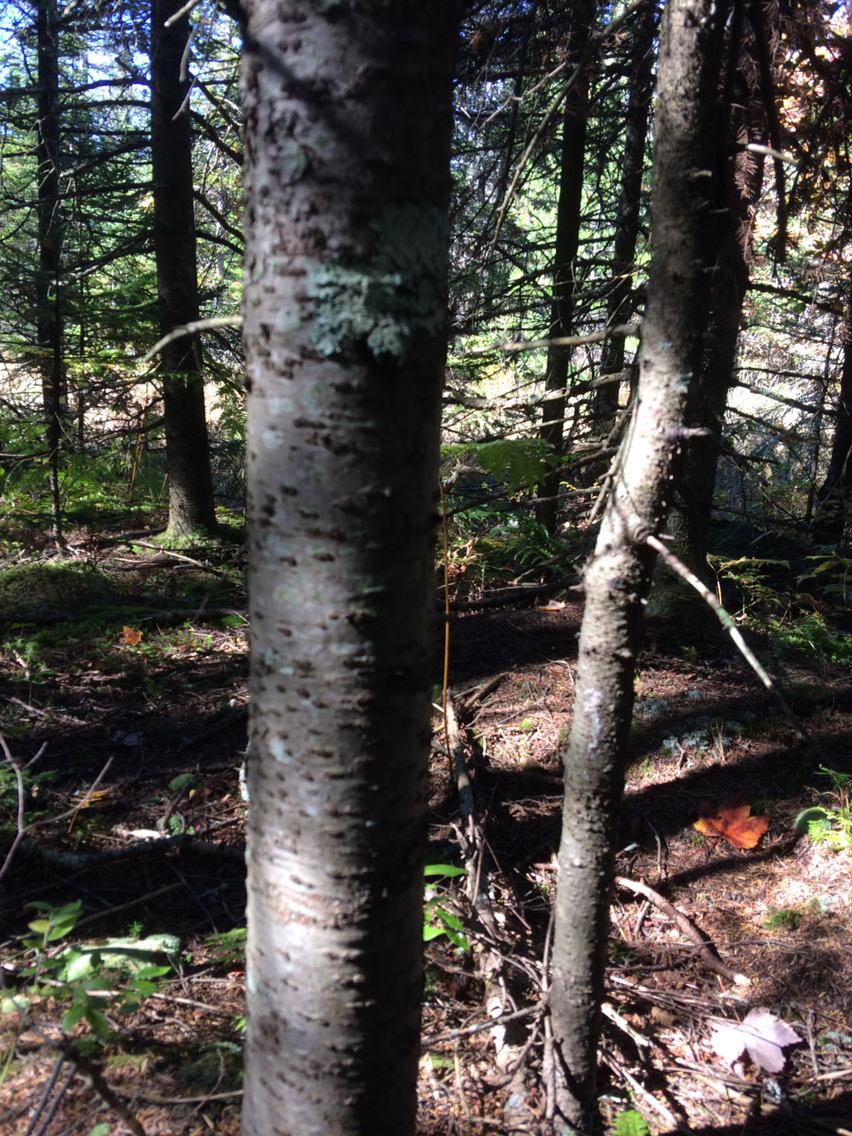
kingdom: Plantae
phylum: Tracheophyta
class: Pinopsida
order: Pinales
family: Pinaceae
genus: Abies
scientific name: Abies balsamea
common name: Balsam fir
